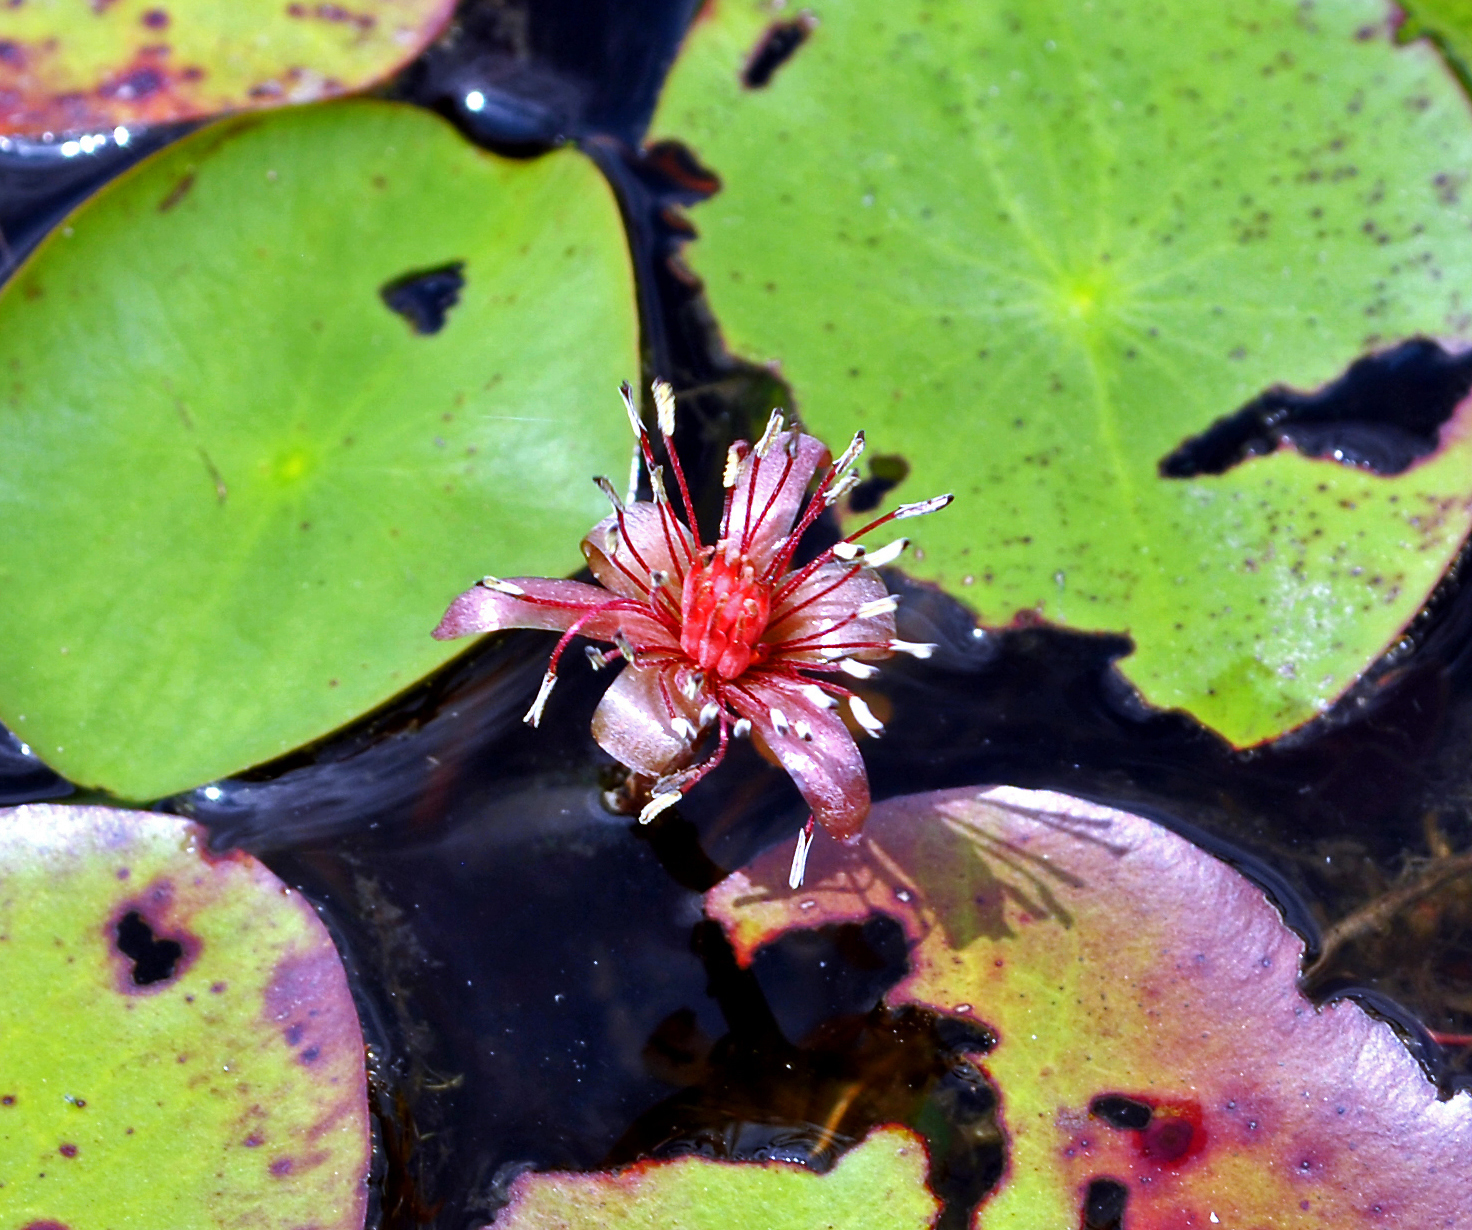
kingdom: Plantae
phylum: Tracheophyta
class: Magnoliopsida
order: Nymphaeales
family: Cabombaceae
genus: Brasenia
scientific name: Brasenia schreberi
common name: Water-shield
